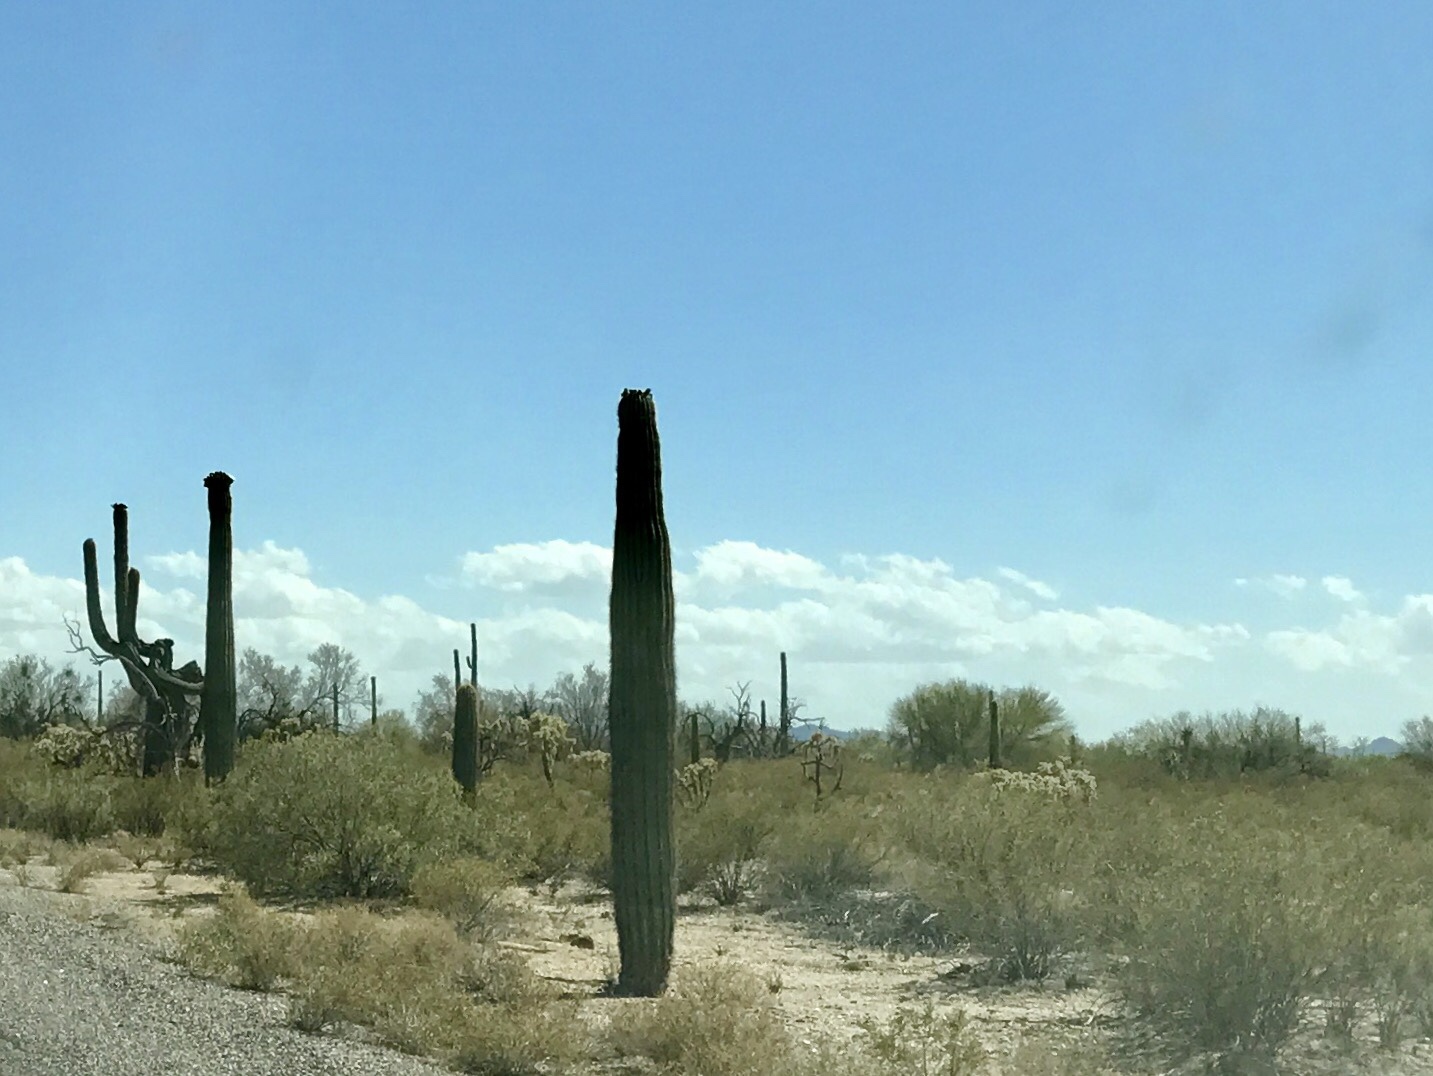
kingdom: Plantae
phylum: Tracheophyta
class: Magnoliopsida
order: Caryophyllales
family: Cactaceae
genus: Carnegiea
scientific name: Carnegiea gigantea
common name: Saguaro
